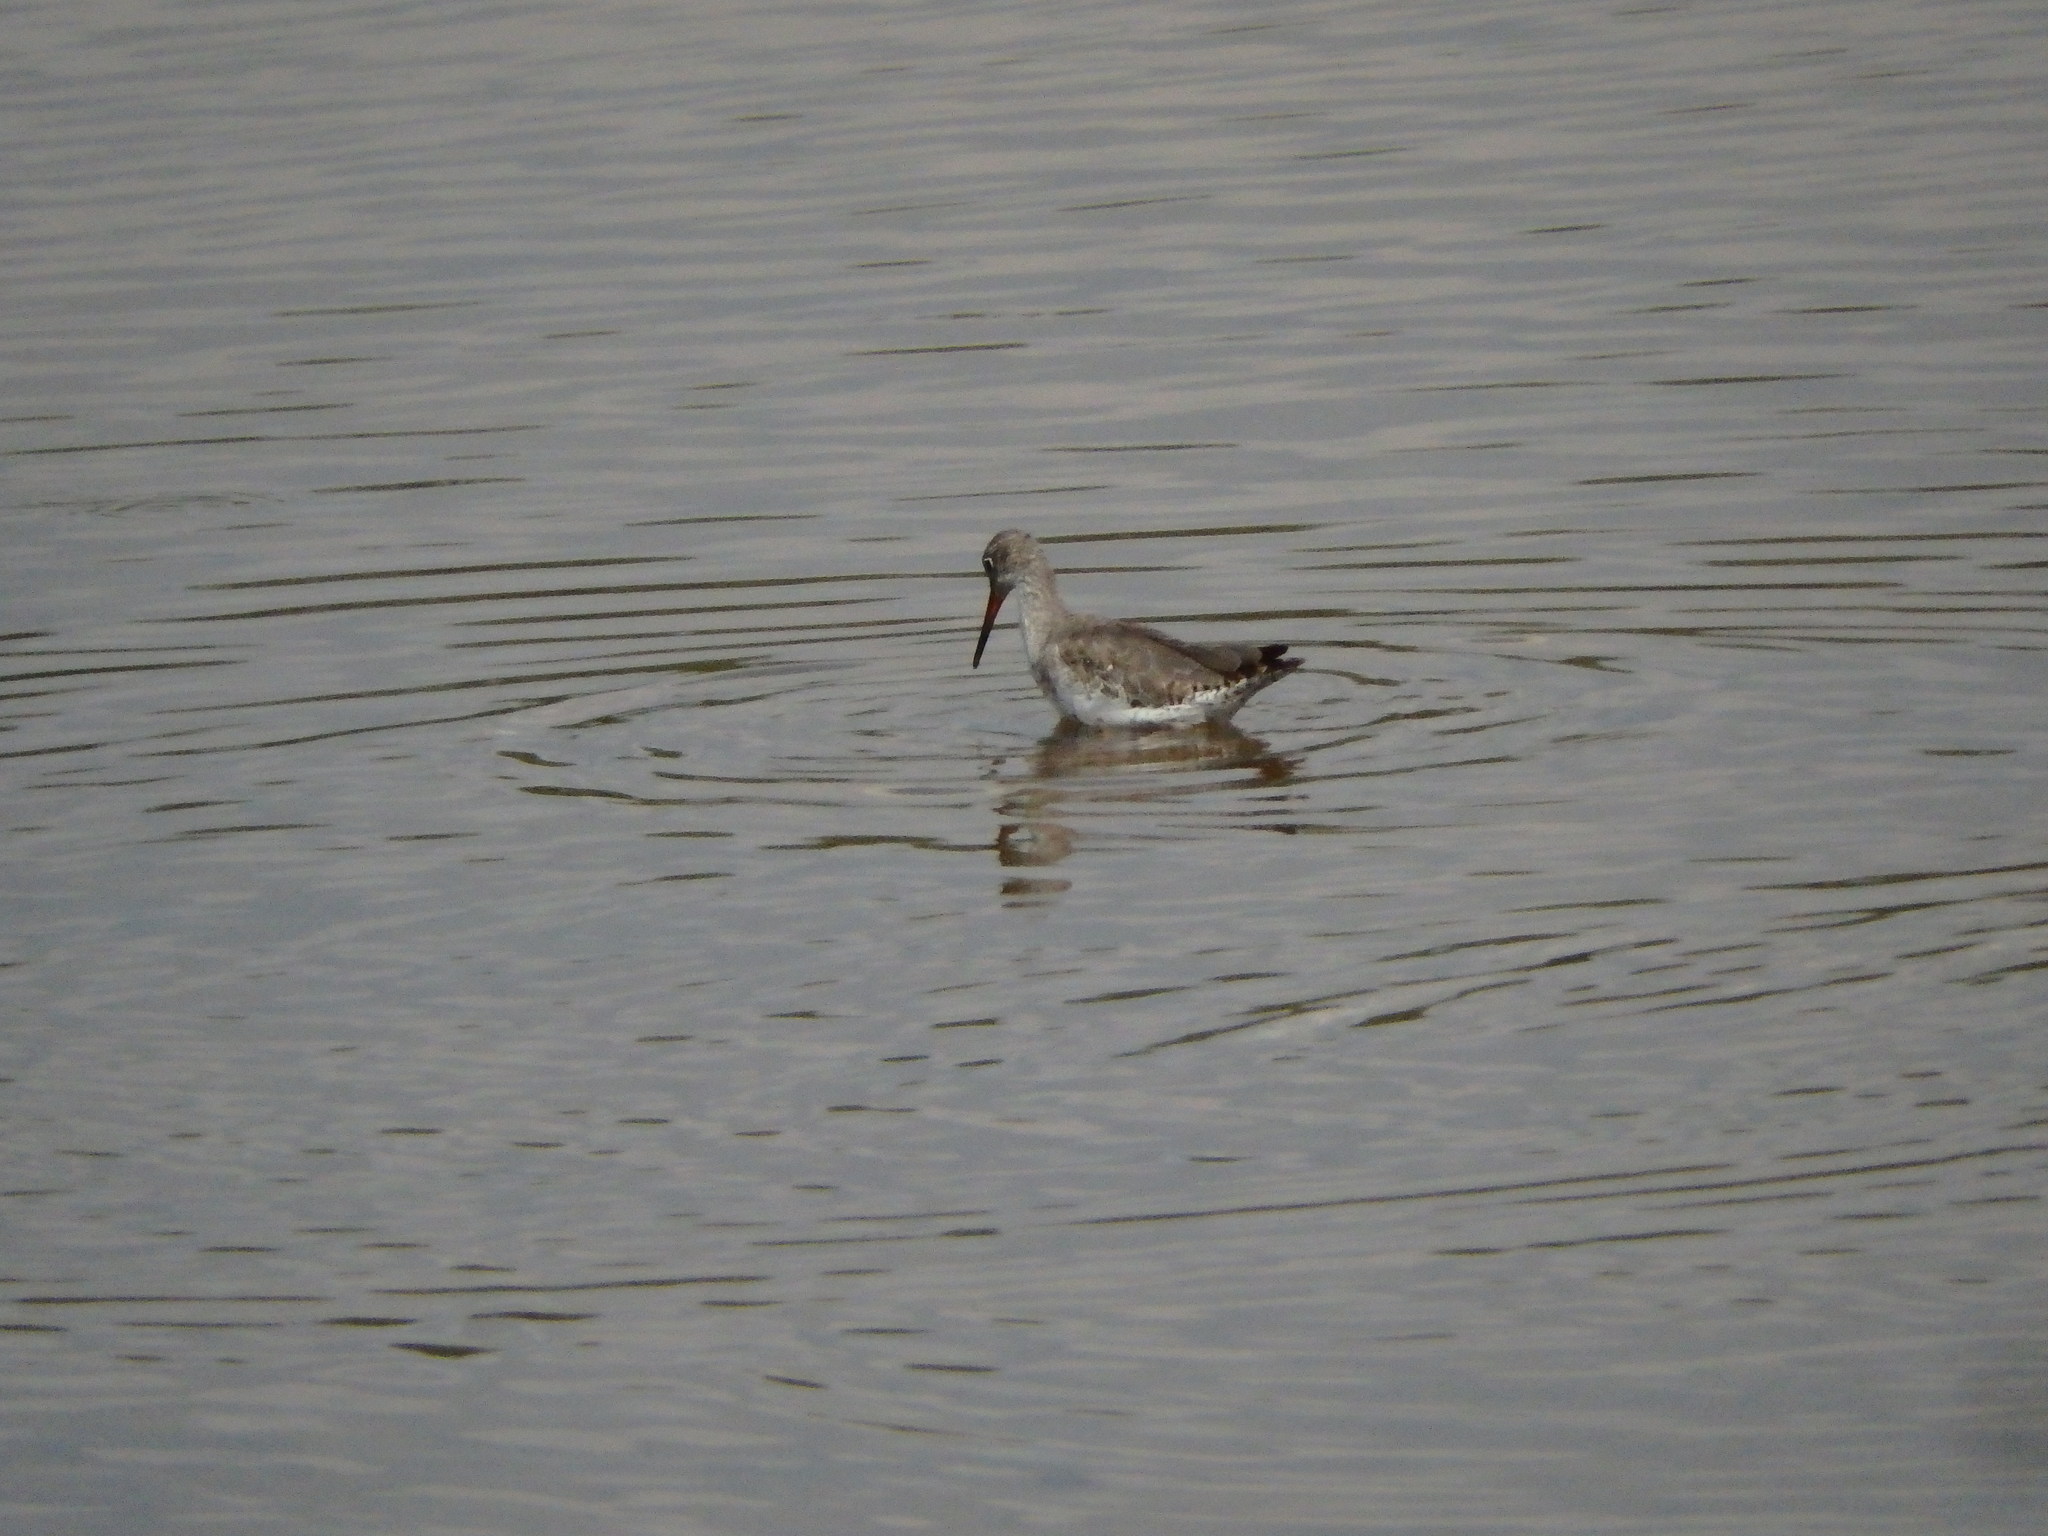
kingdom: Animalia
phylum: Chordata
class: Aves
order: Charadriiformes
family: Scolopacidae
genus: Tringa
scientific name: Tringa totanus
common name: Common redshank
